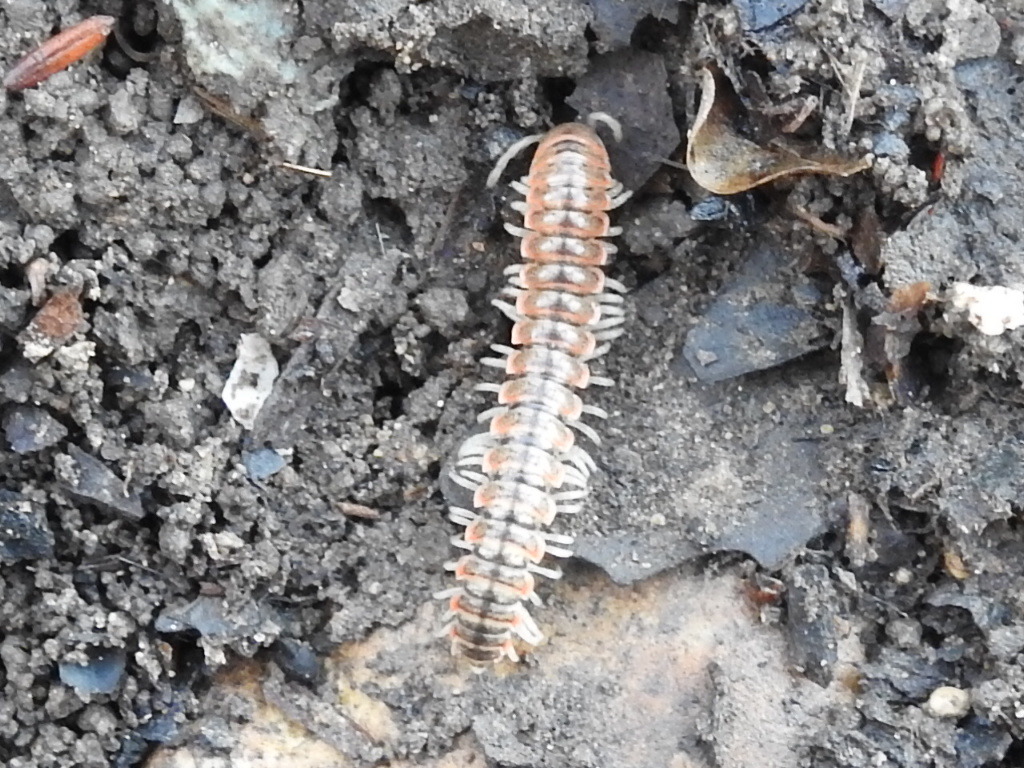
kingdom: Animalia
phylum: Arthropoda
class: Diplopoda
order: Polydesmida
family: Xystodesmidae
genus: Eurymerodesmus
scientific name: Eurymerodesmus mundus
